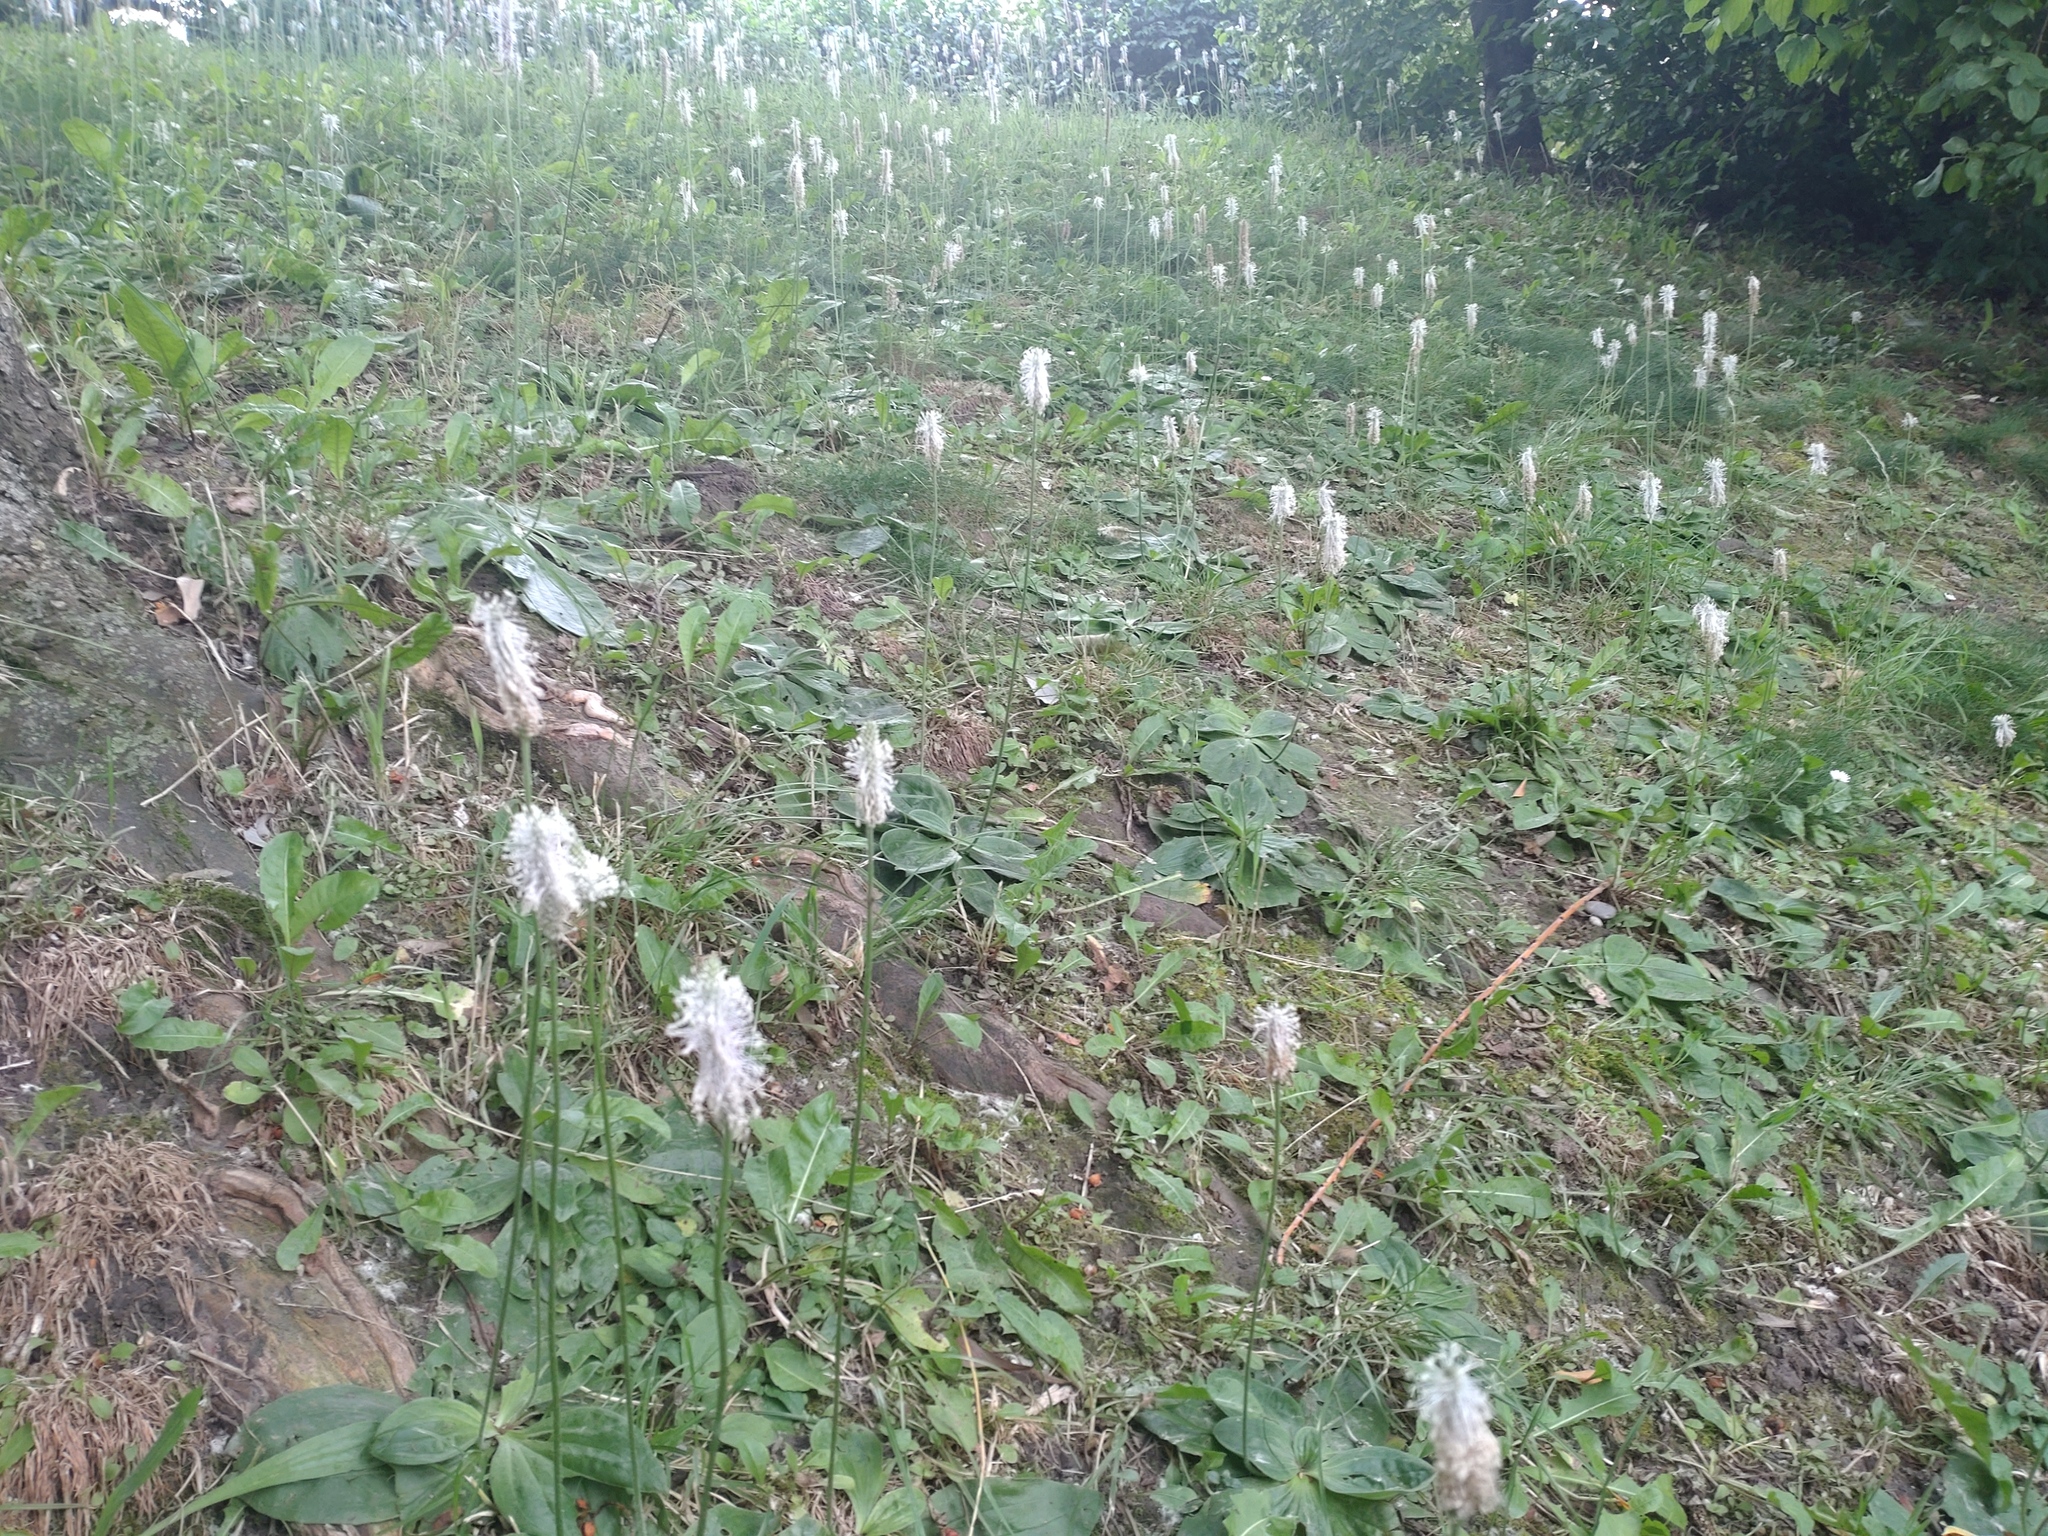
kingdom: Plantae
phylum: Tracheophyta
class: Magnoliopsida
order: Lamiales
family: Plantaginaceae
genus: Plantago
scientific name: Plantago media
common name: Hoary plantain
